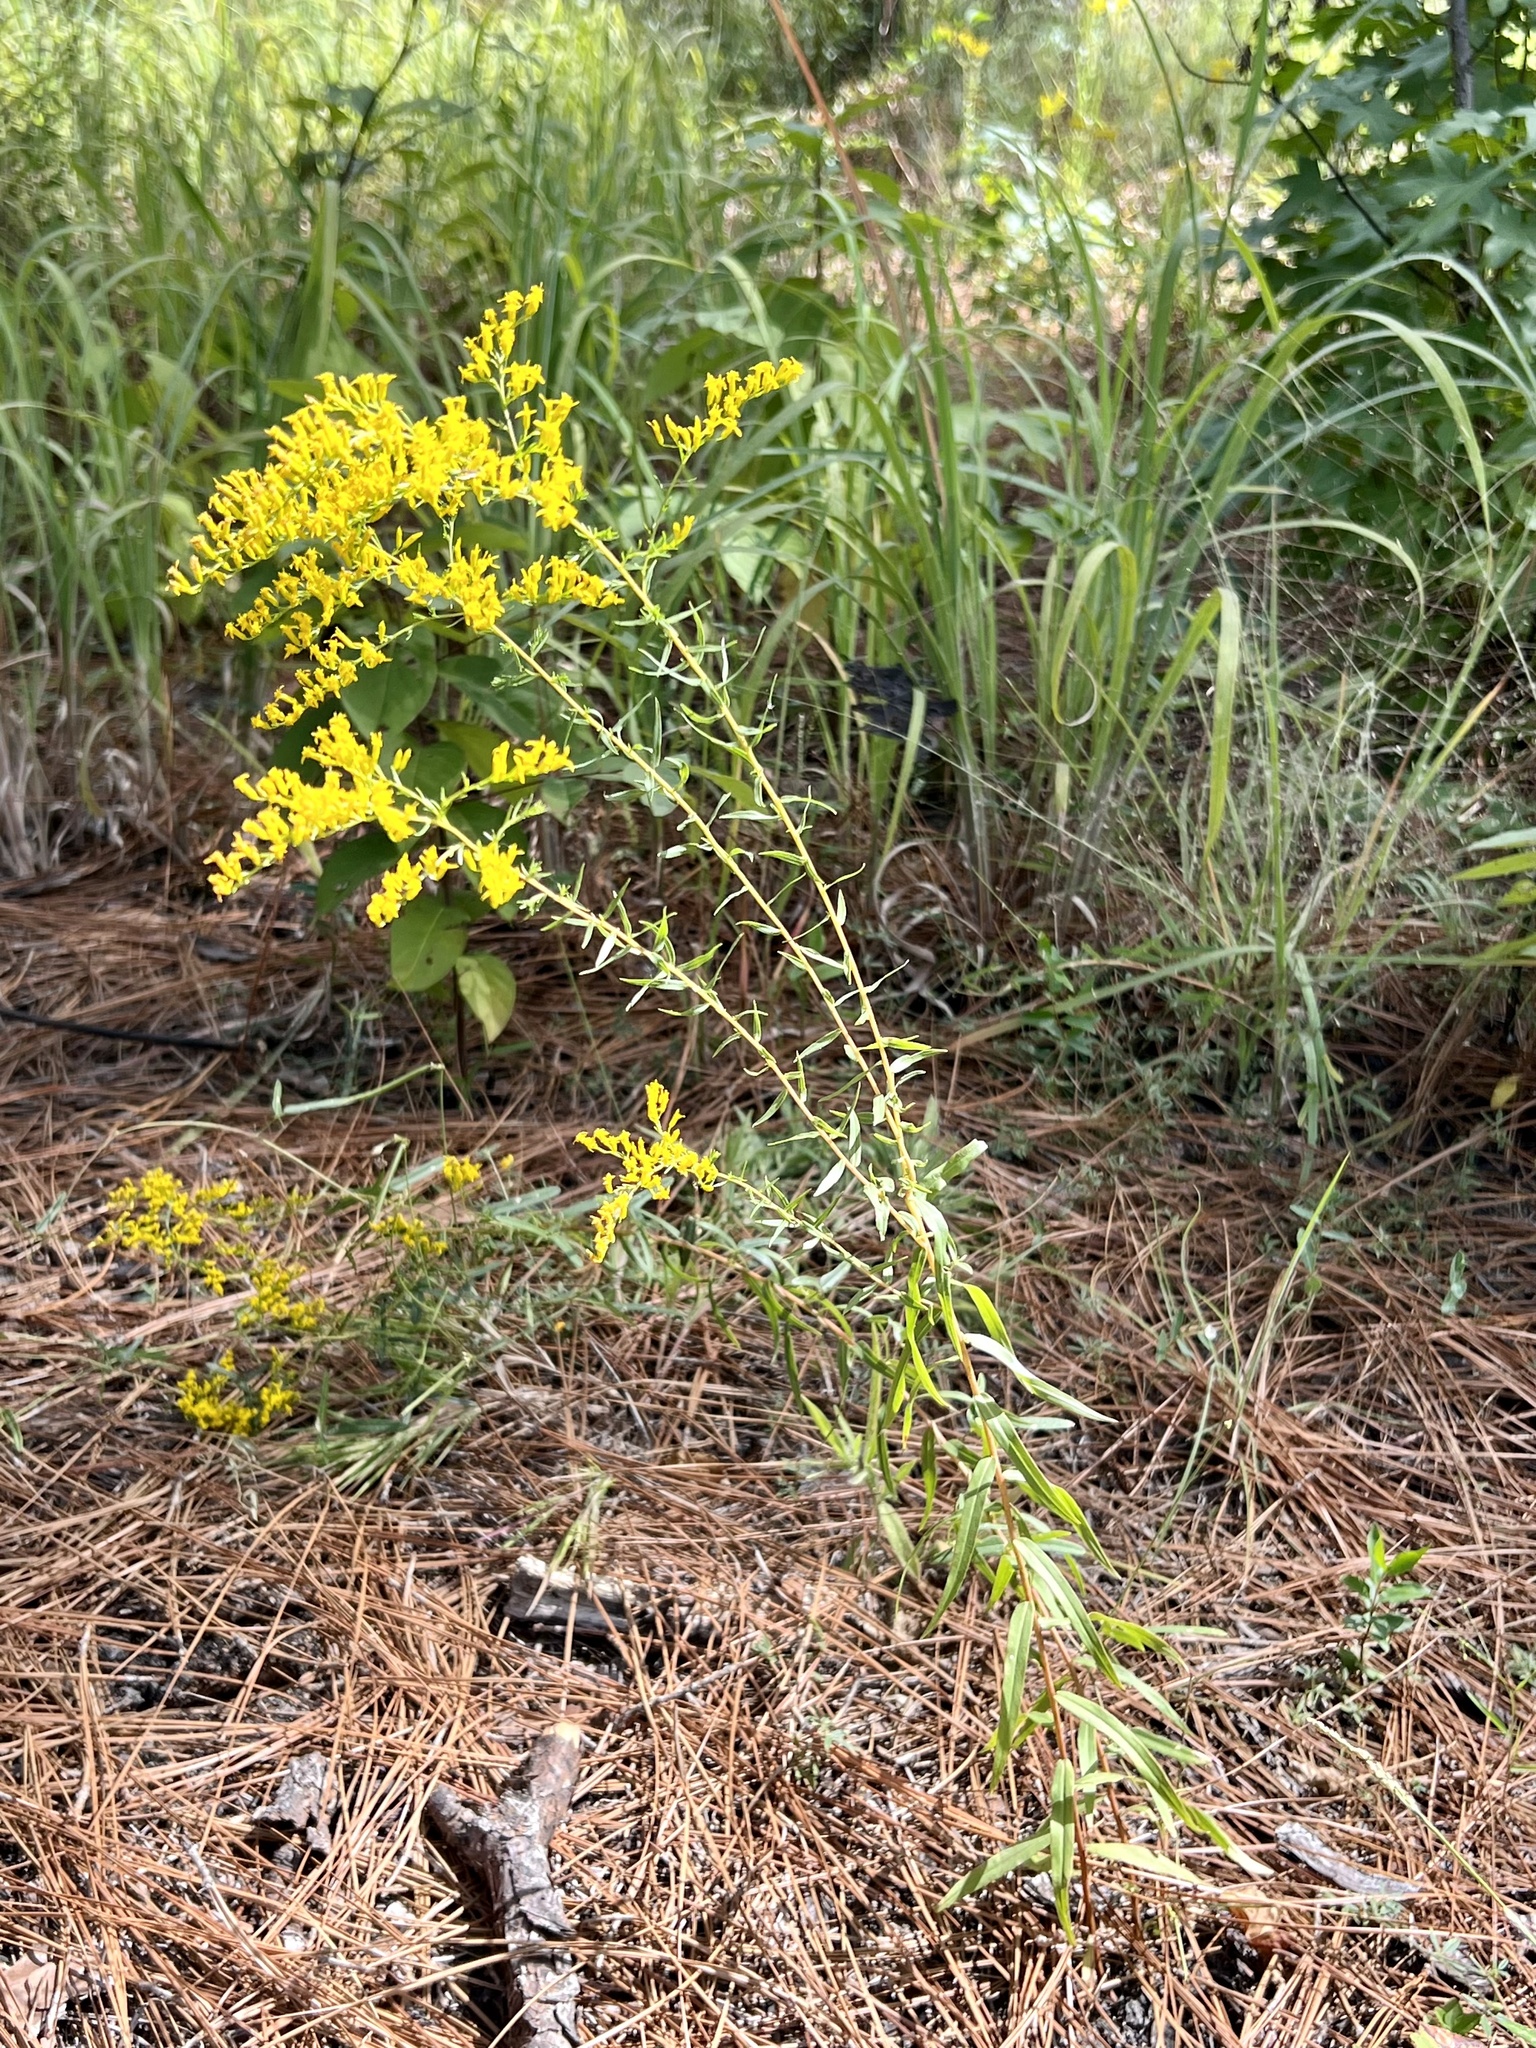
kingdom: Plantae
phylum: Tracheophyta
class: Magnoliopsida
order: Asterales
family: Asteraceae
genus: Solidago
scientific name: Solidago odora
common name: Anise-scented goldenrod
